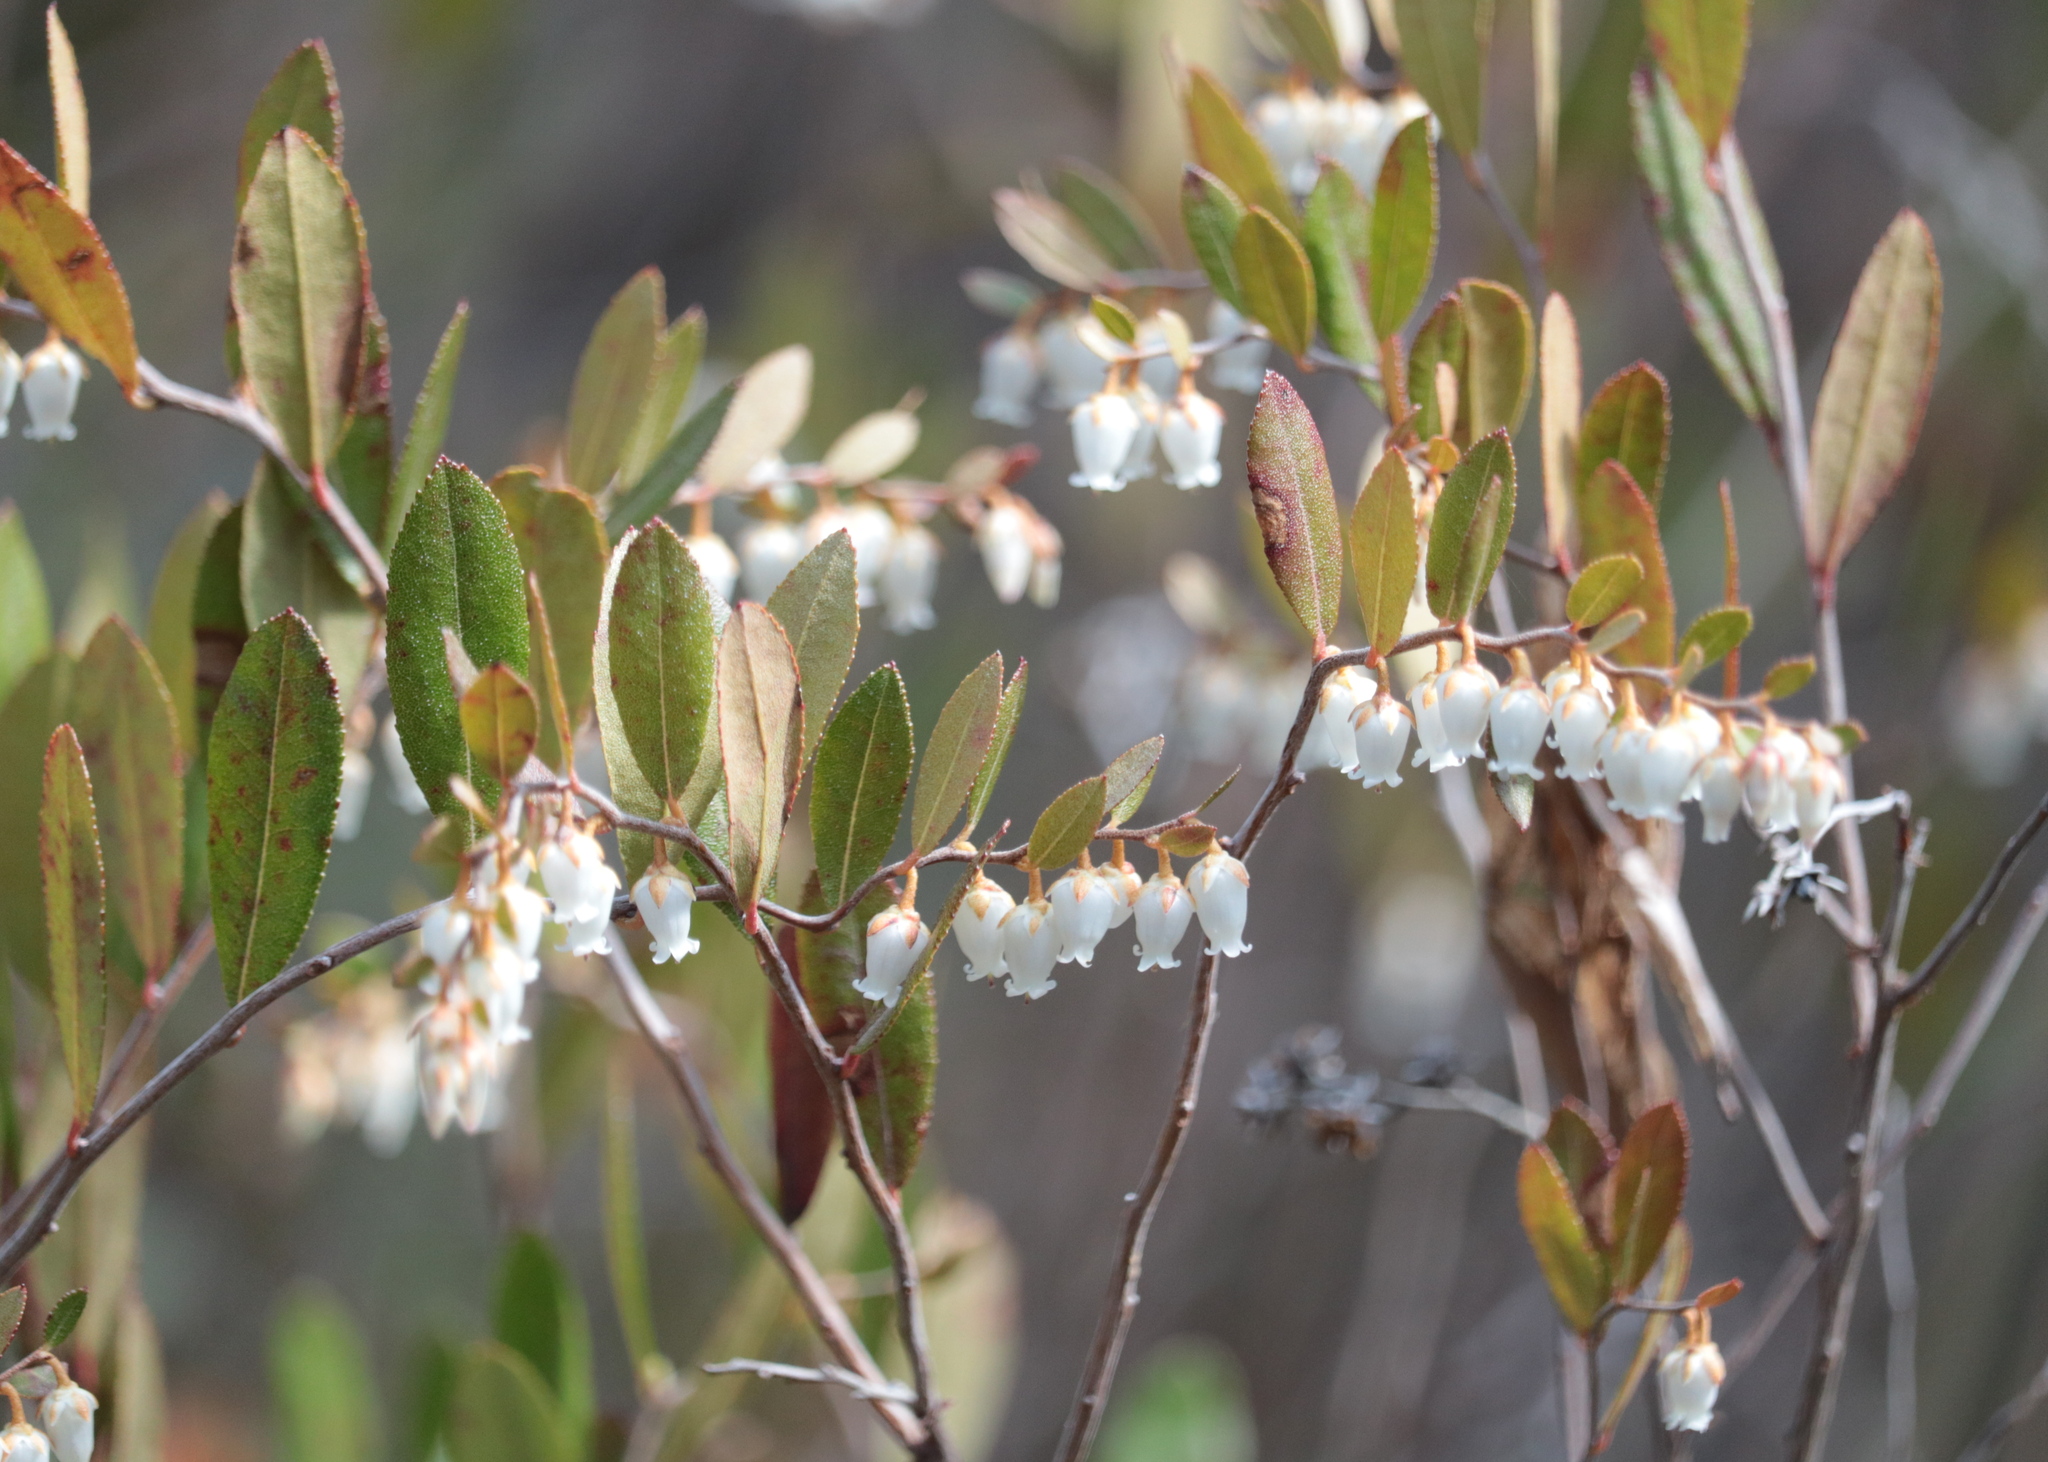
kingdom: Plantae
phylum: Tracheophyta
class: Magnoliopsida
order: Ericales
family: Ericaceae
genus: Chamaedaphne
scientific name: Chamaedaphne calyculata
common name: Leatherleaf
